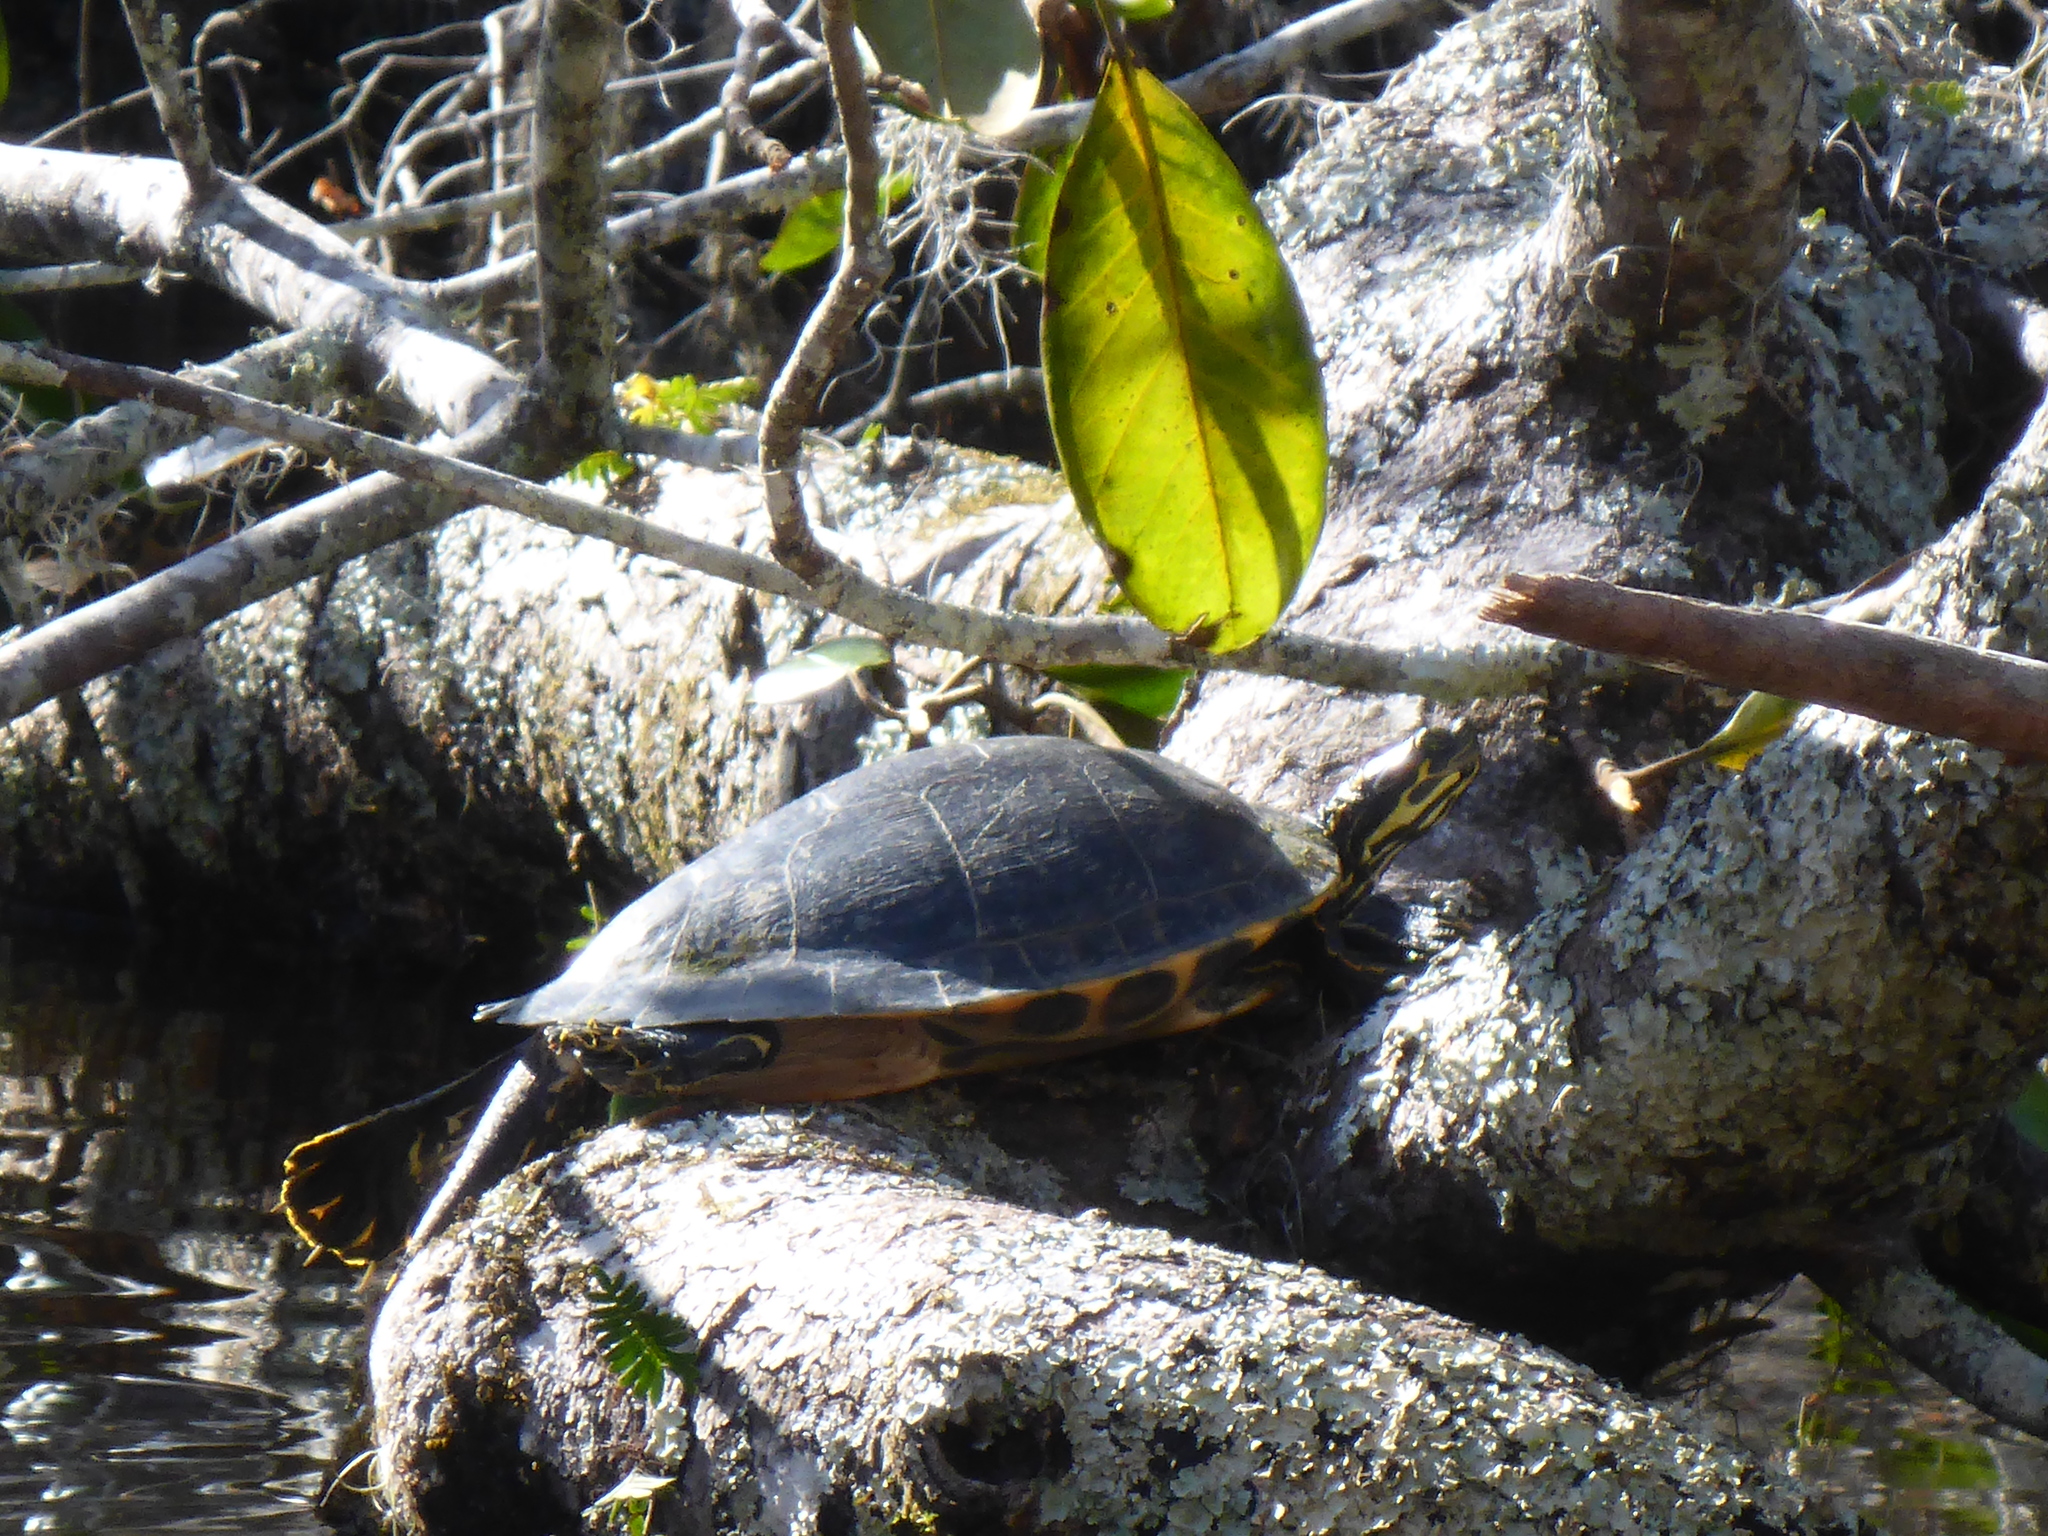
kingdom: Animalia
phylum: Chordata
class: Testudines
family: Emydidae
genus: Pseudemys
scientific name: Pseudemys concinna
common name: Eastern river cooter
